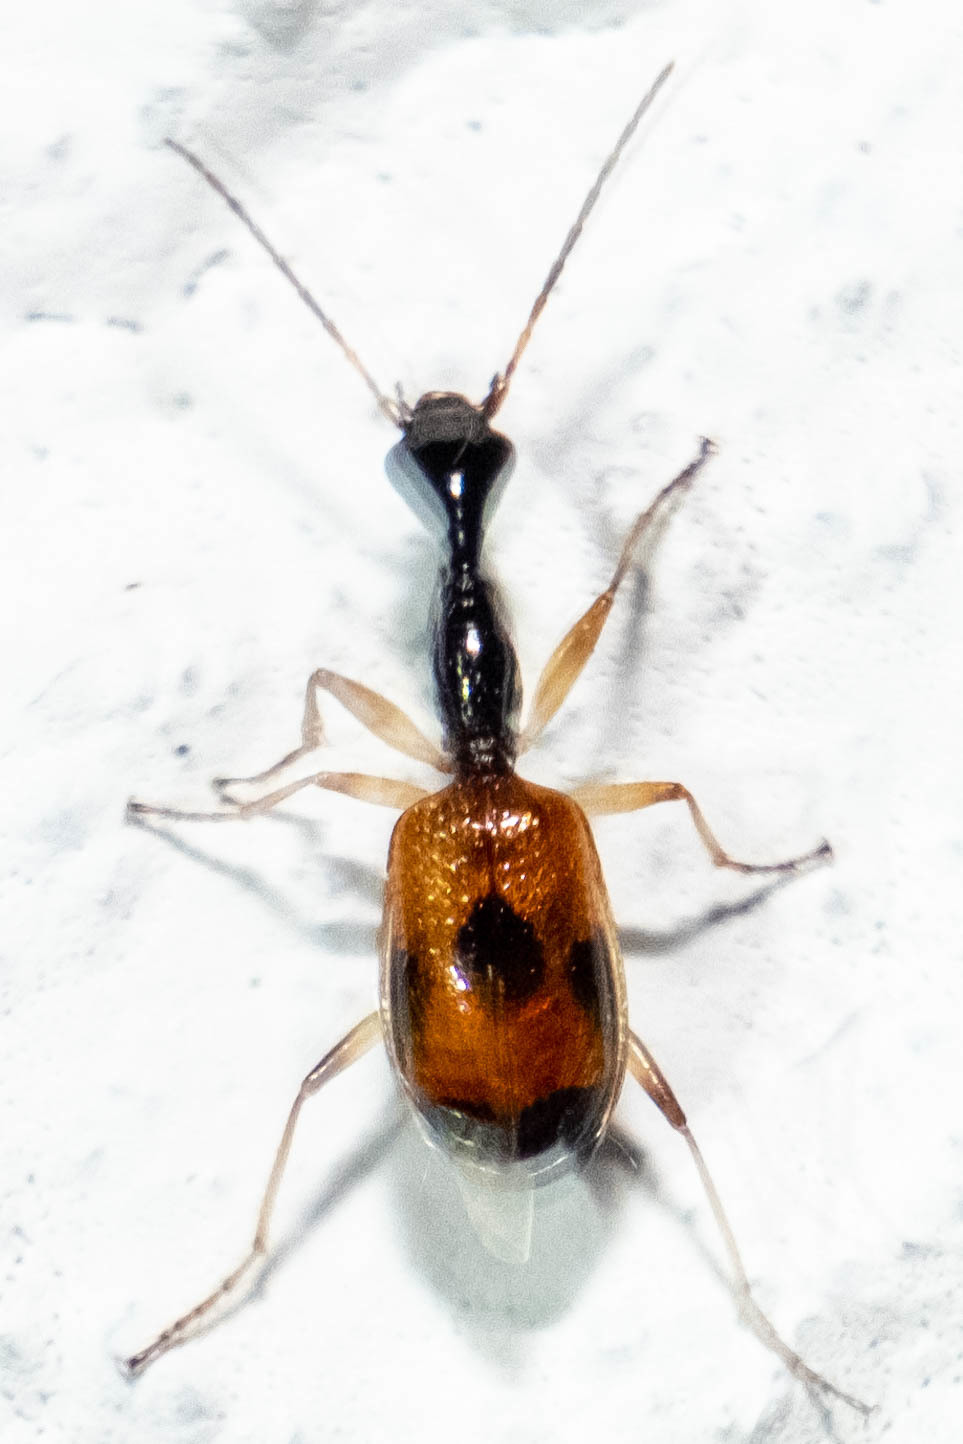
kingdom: Animalia
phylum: Arthropoda
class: Insecta
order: Coleoptera
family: Carabidae
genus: Colliuris
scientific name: Colliuris pensylvanica
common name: Long-necked ground beetle
